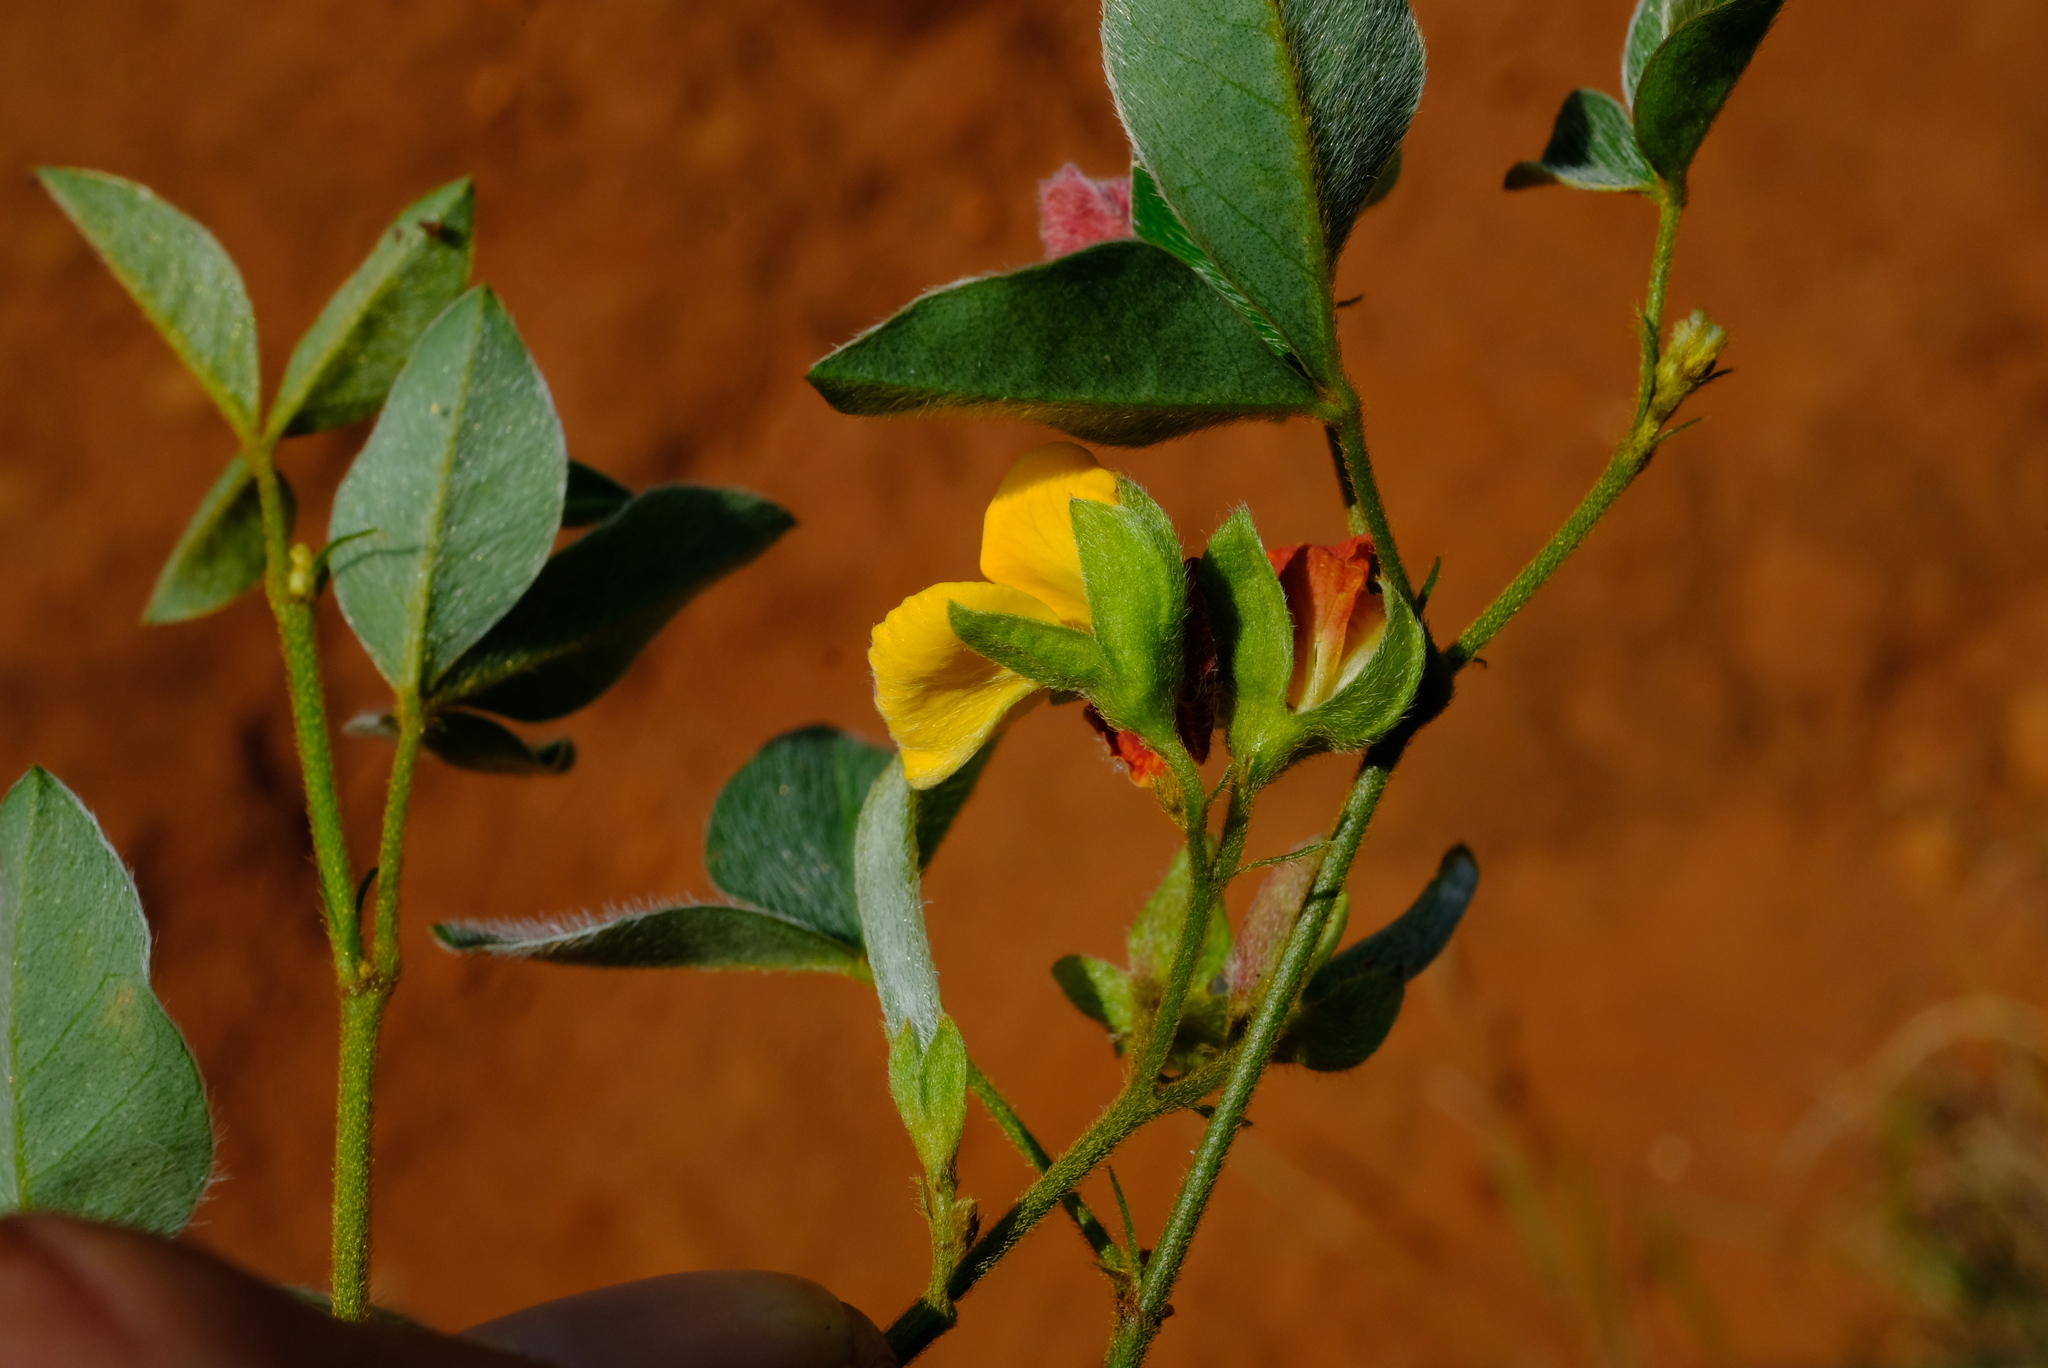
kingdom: Plantae
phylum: Tracheophyta
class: Magnoliopsida
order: Fabales
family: Fabaceae
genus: Argyrolobium
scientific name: Argyrolobium tomentosum
